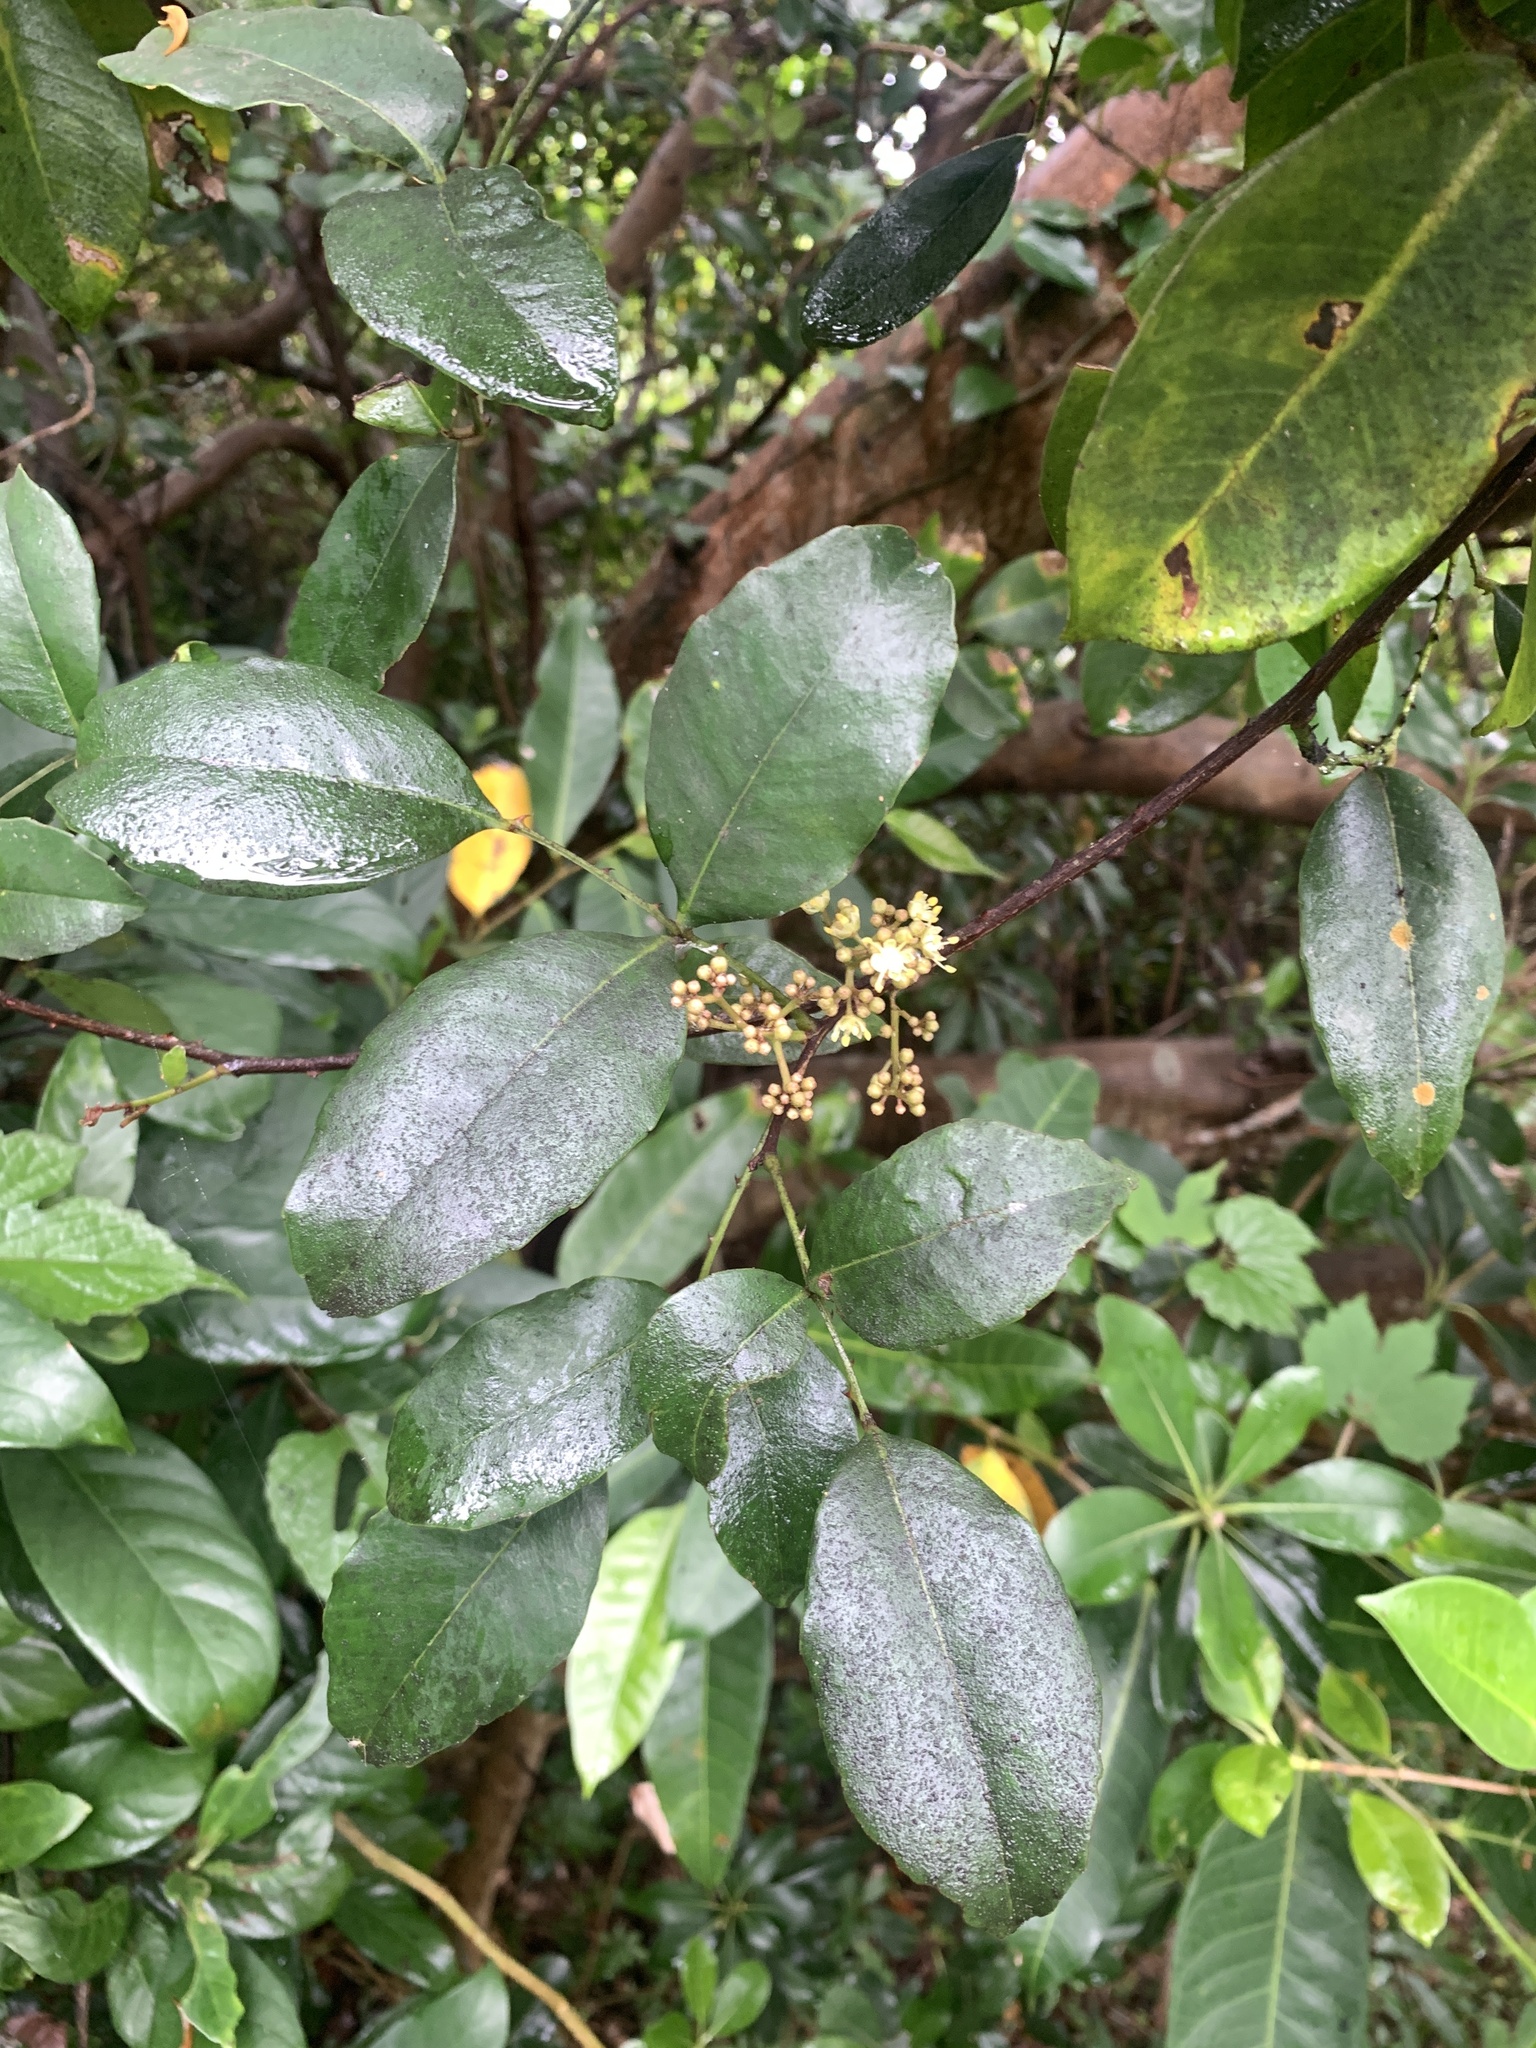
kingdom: Plantae
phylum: Tracheophyta
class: Magnoliopsida
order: Sapindales
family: Rutaceae
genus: Zanthoxylum
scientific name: Zanthoxylum nitidum
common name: Shiny-leaf prickly-ash
